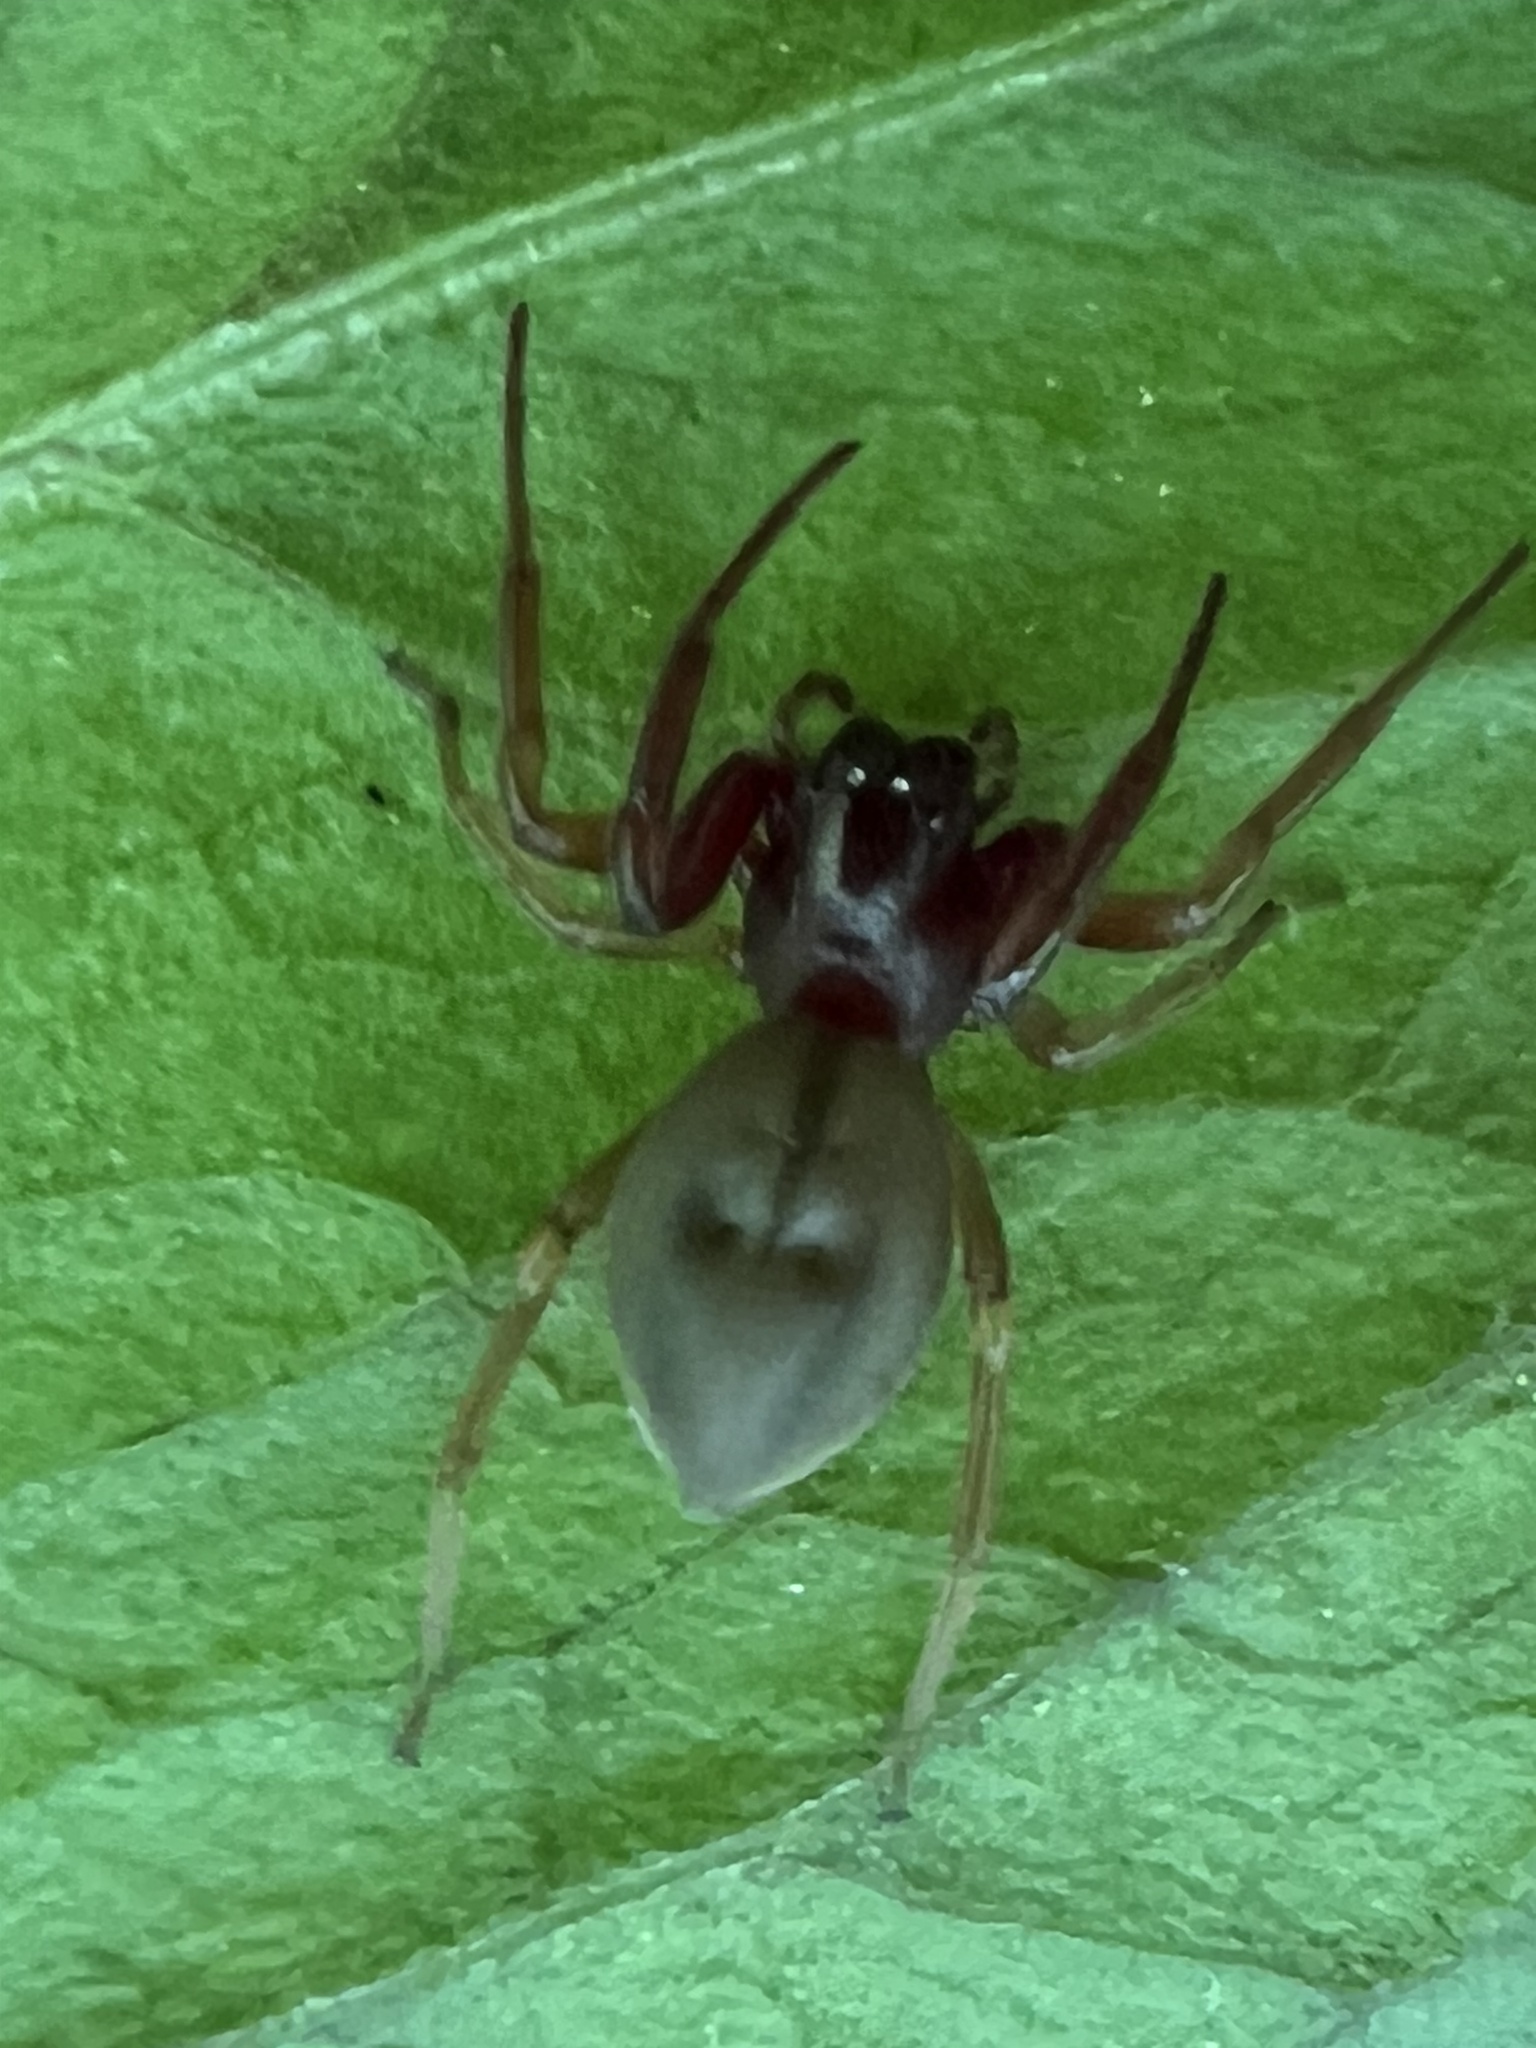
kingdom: Animalia
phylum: Arthropoda
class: Arachnida
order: Araneae
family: Trachelidae
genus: Trachelas
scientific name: Trachelas tranquillus
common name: Broad-faced sac spider
